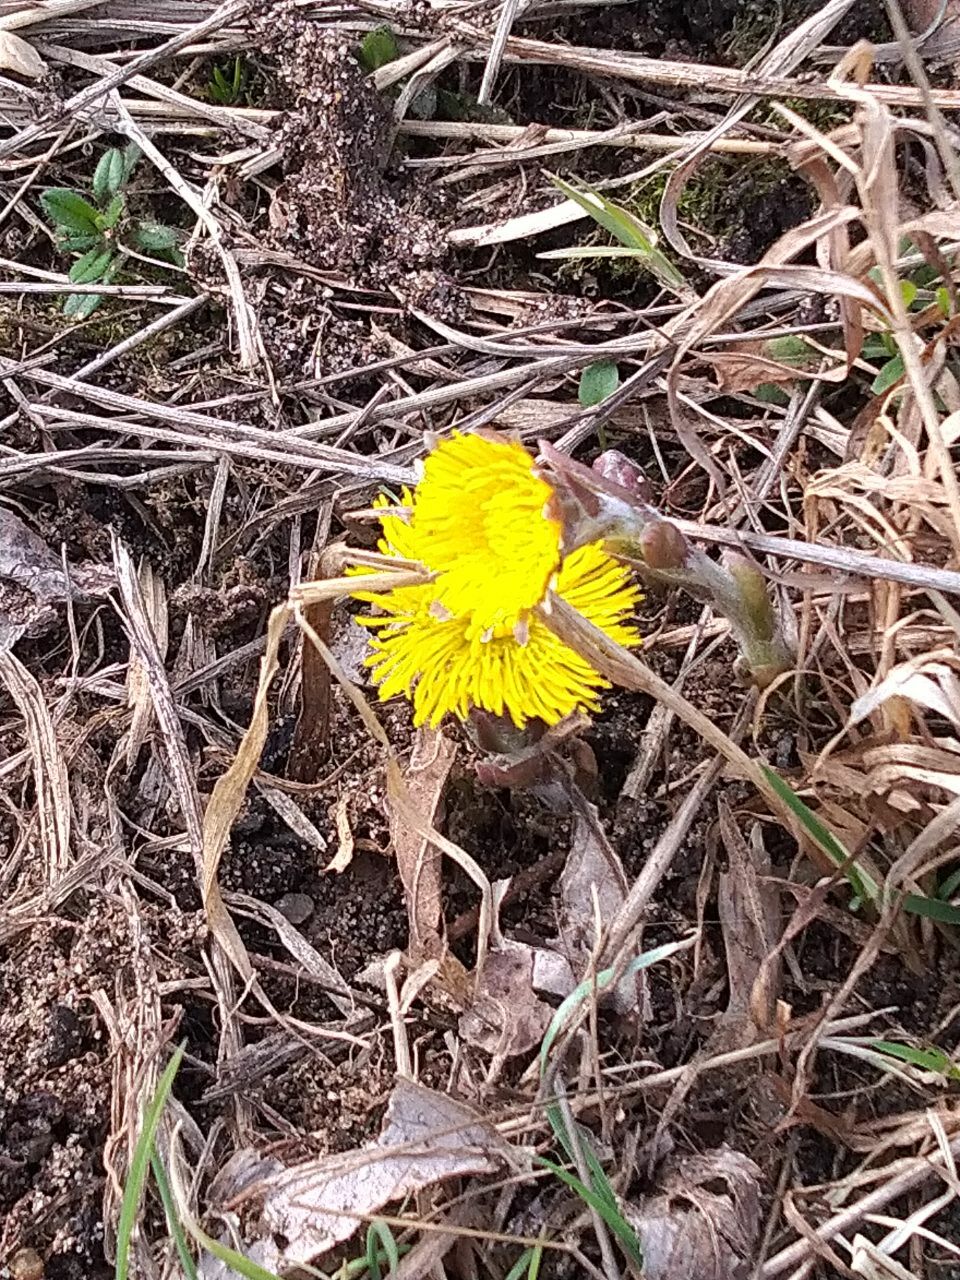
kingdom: Plantae
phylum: Tracheophyta
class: Magnoliopsida
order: Asterales
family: Asteraceae
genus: Tussilago
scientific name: Tussilago farfara
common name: Coltsfoot
